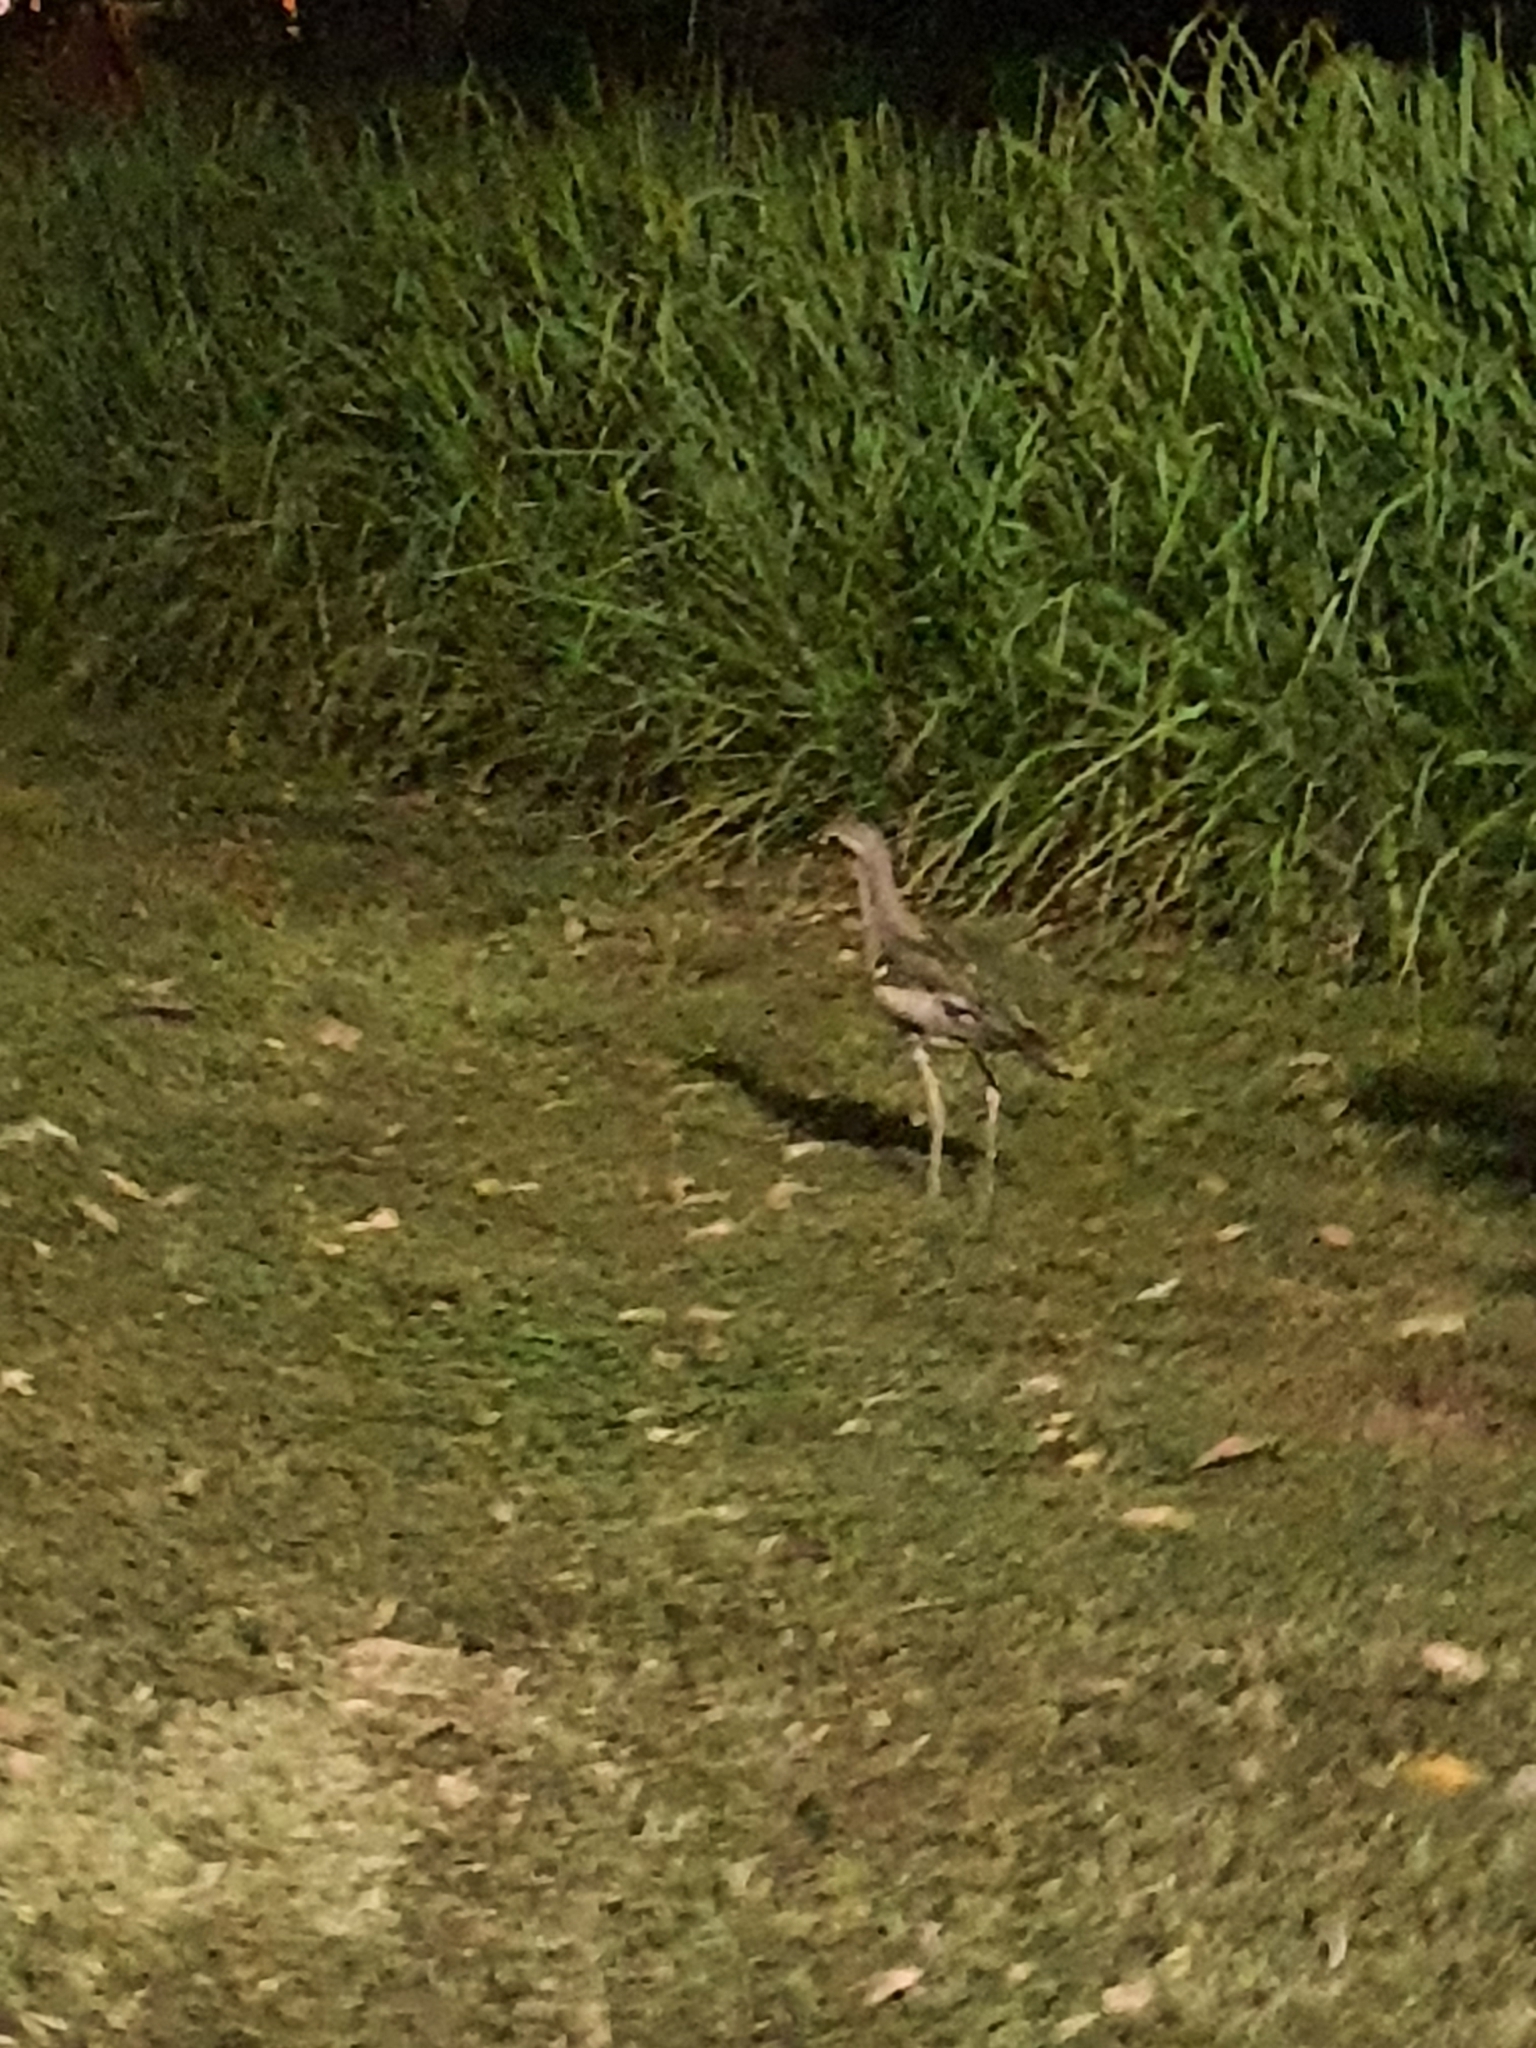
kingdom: Animalia
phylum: Chordata
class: Aves
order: Charadriiformes
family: Burhinidae
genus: Burhinus
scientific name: Burhinus grallarius
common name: Bush stone-curlew
